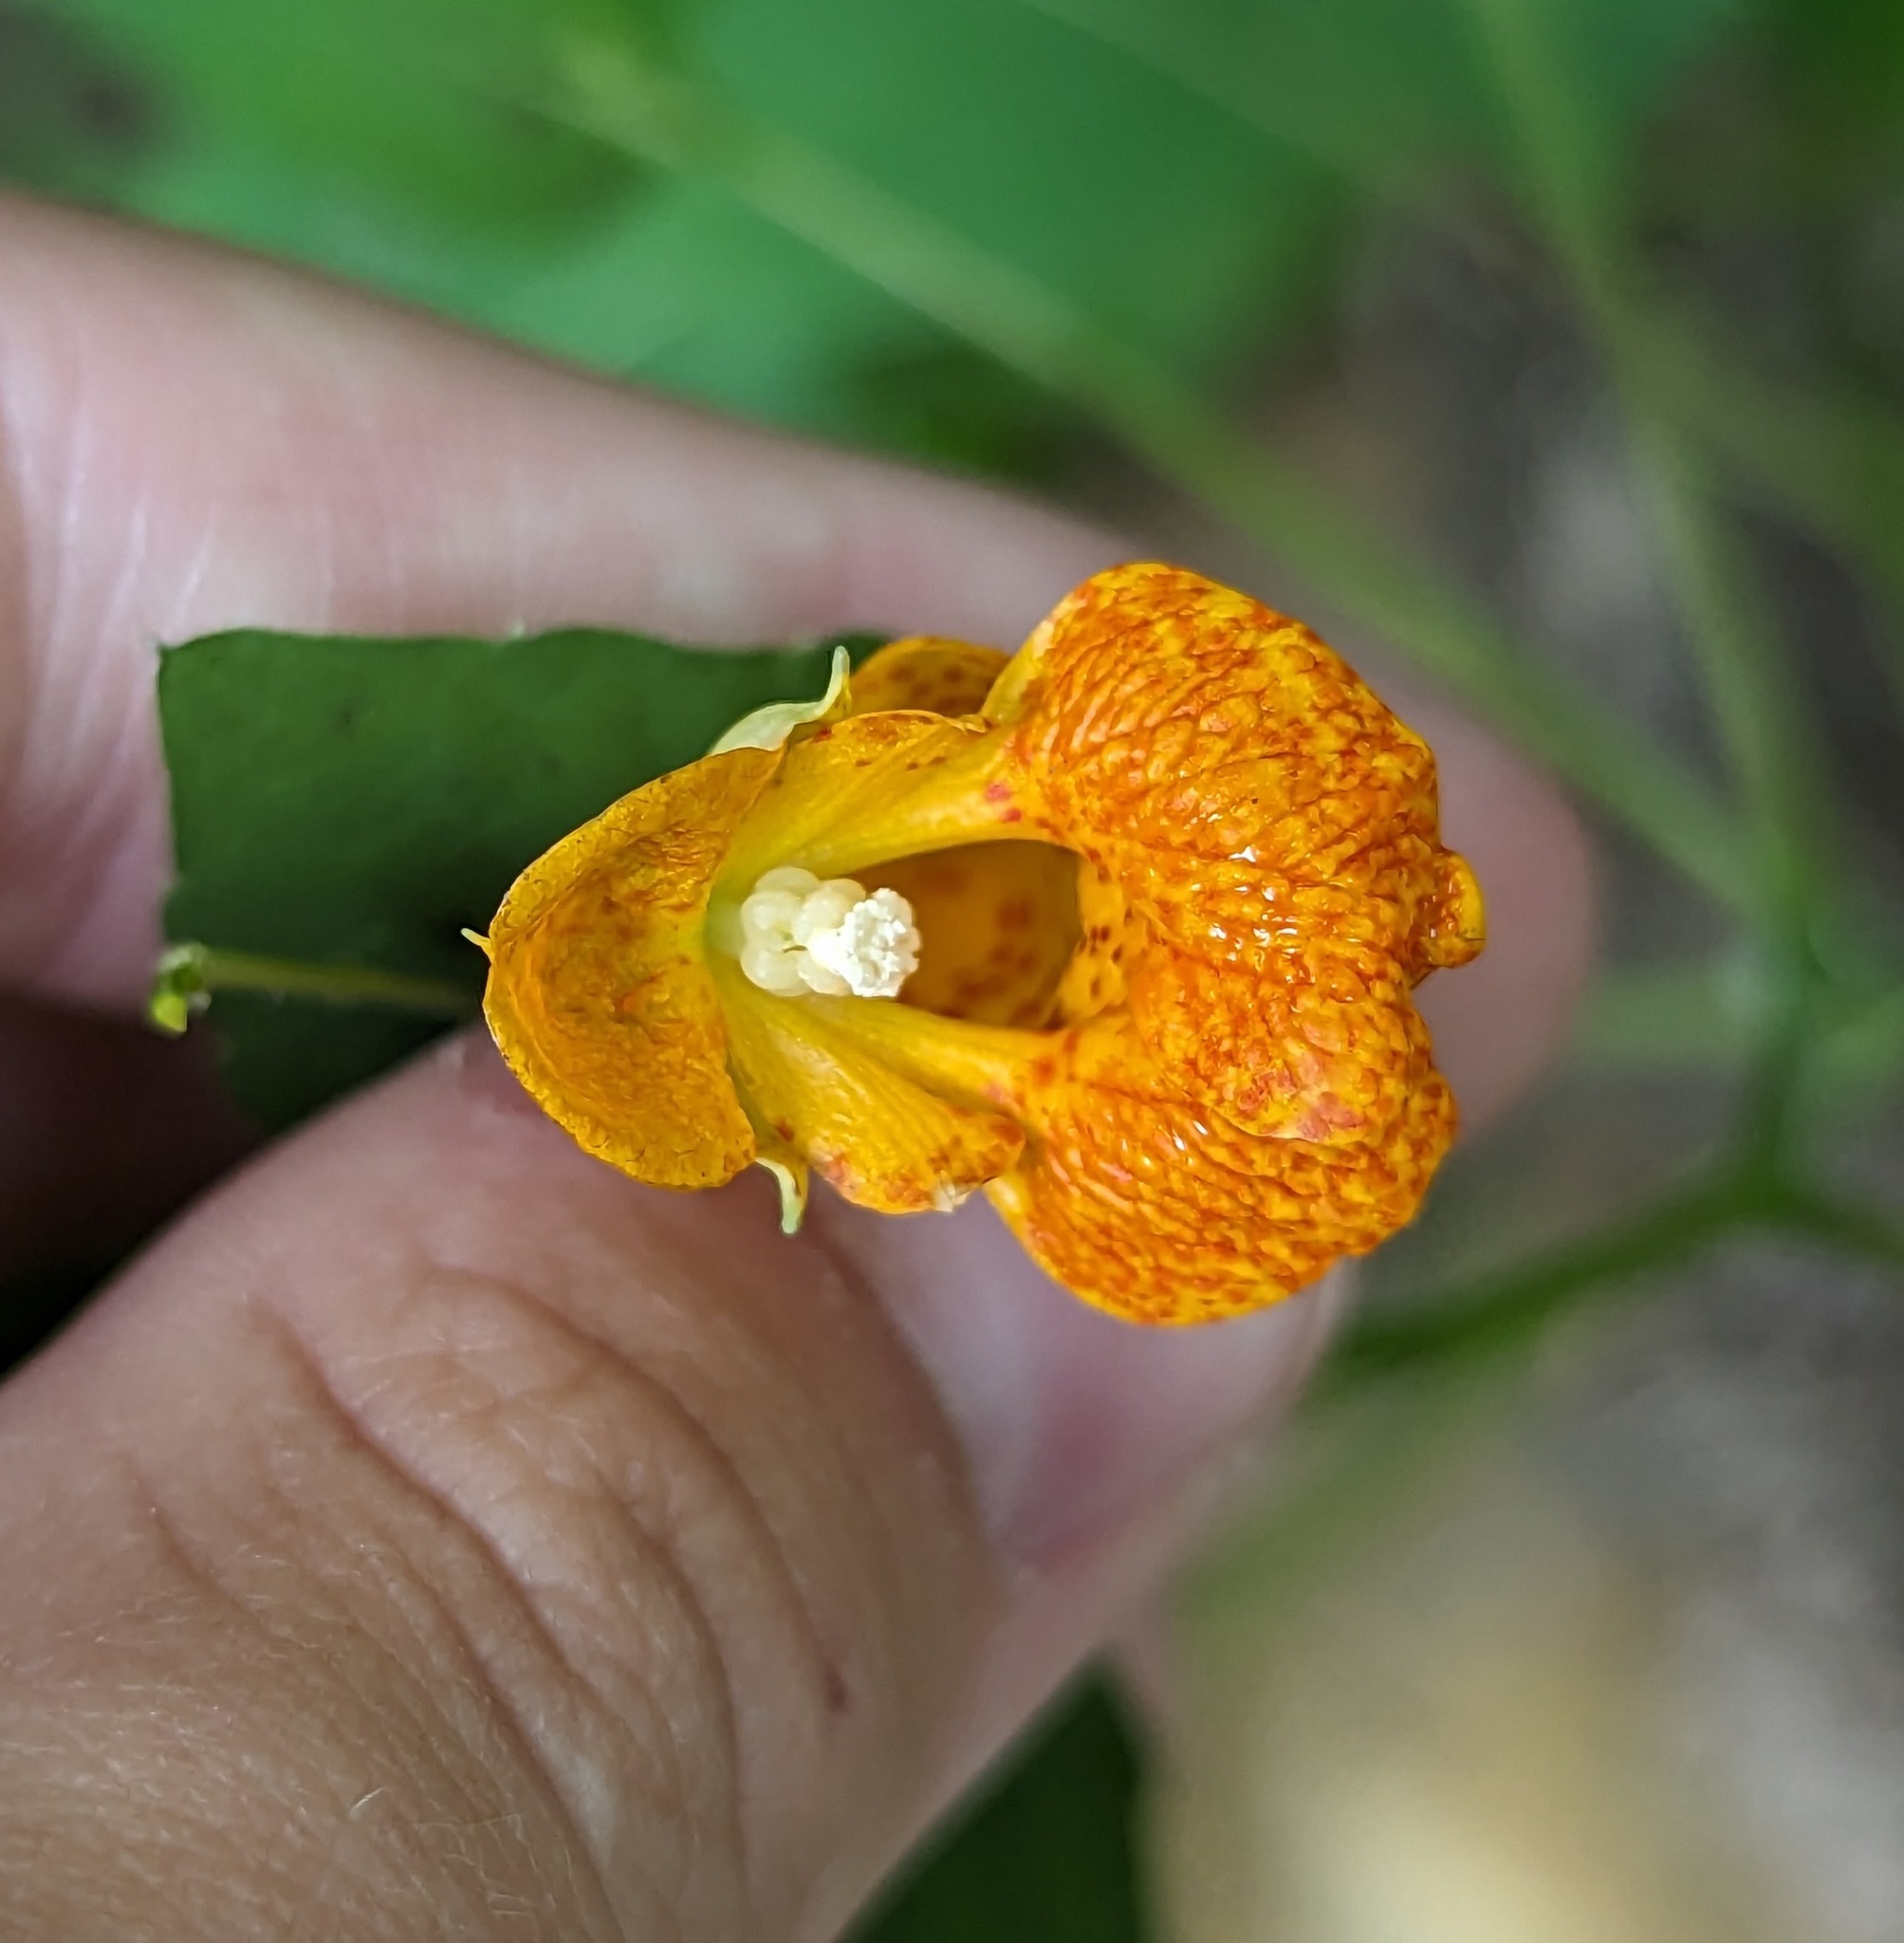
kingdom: Plantae
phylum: Tracheophyta
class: Magnoliopsida
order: Ericales
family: Balsaminaceae
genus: Impatiens
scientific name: Impatiens capensis
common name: Orange balsam
